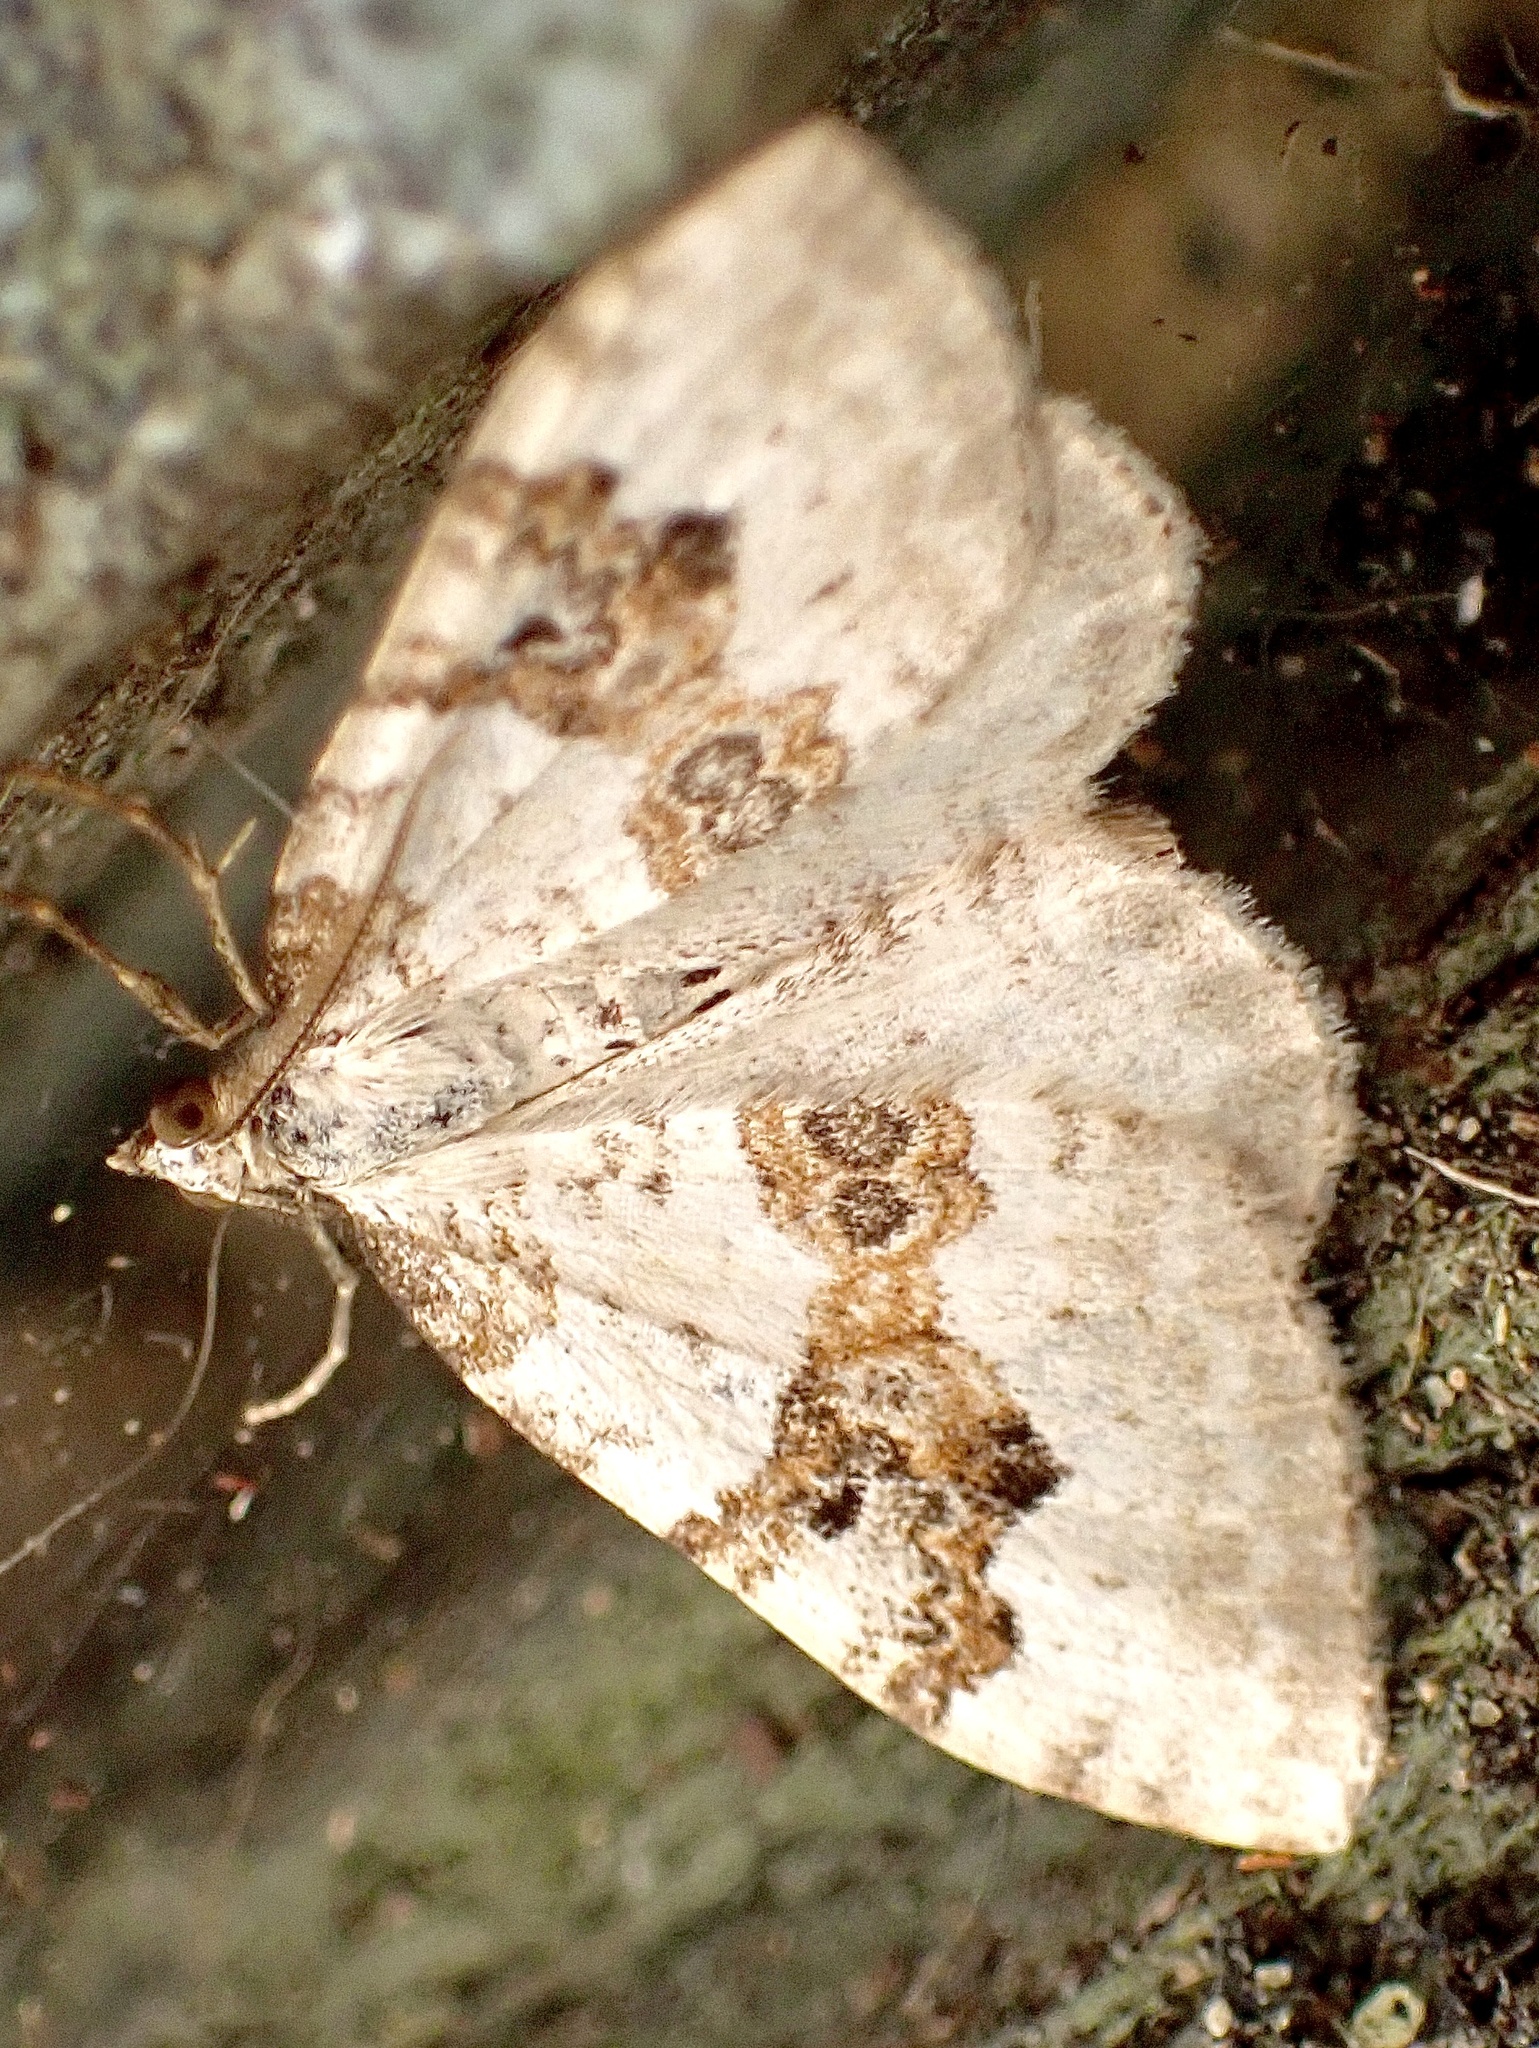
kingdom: Animalia
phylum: Arthropoda
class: Insecta
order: Lepidoptera
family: Geometridae
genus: Xanthorhoe
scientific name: Xanthorhoe montanata
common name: Silver-ground carpet
